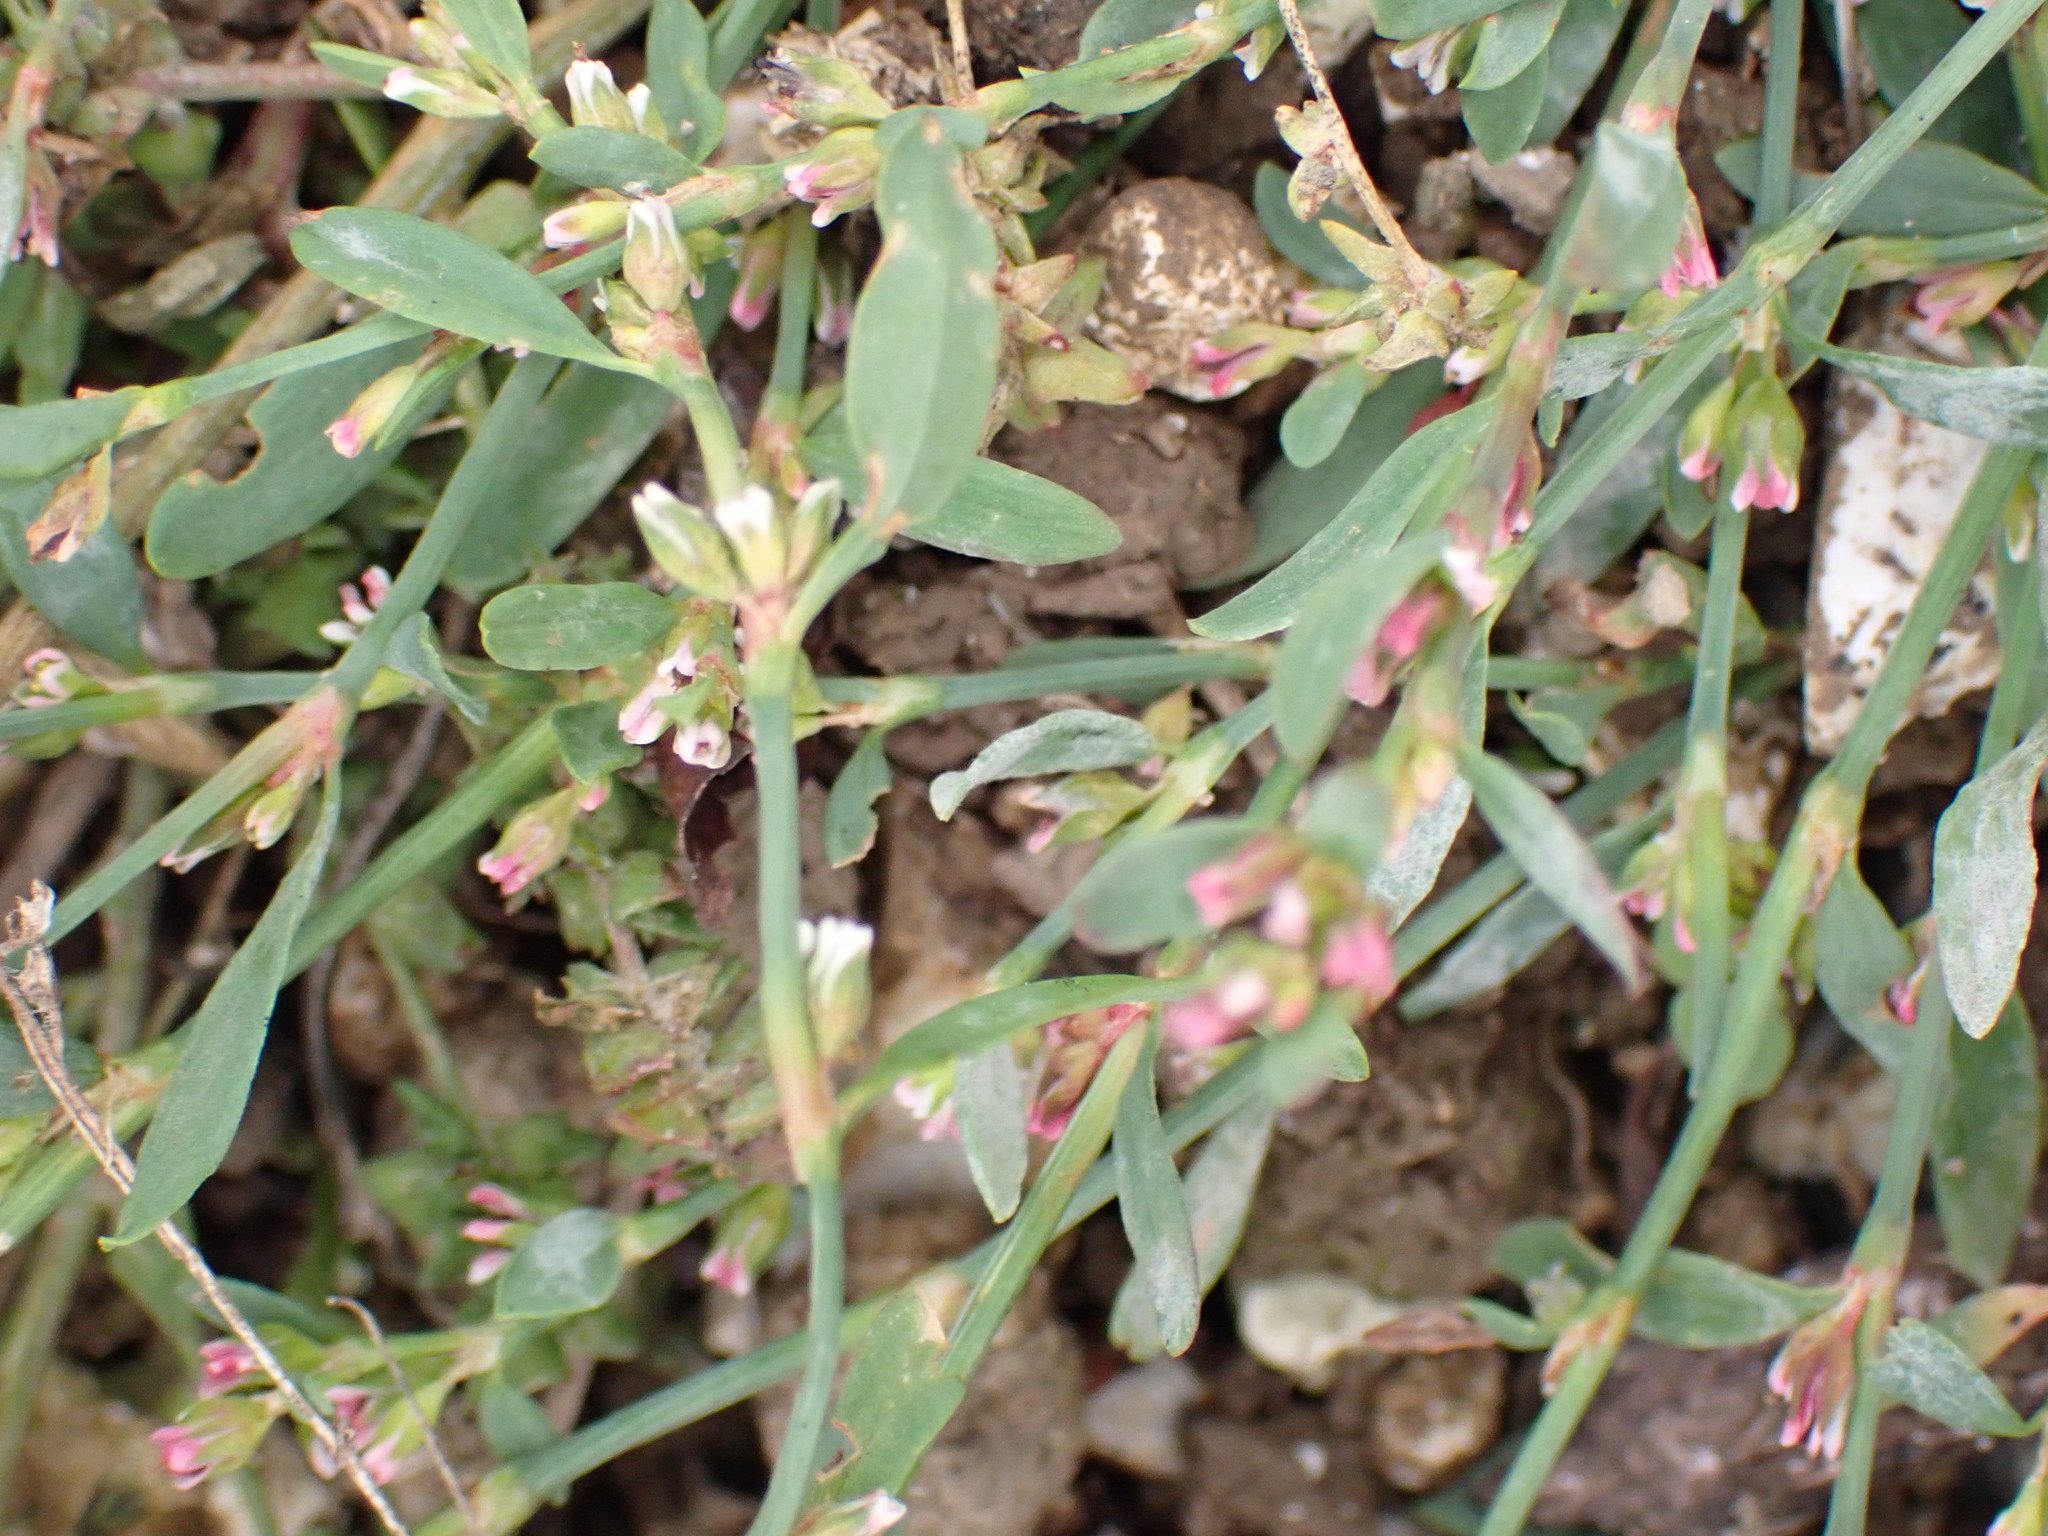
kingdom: Plantae
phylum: Tracheophyta
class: Magnoliopsida
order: Caryophyllales
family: Polygonaceae
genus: Polygonum
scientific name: Polygonum aviculare
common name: Prostrate knotweed
